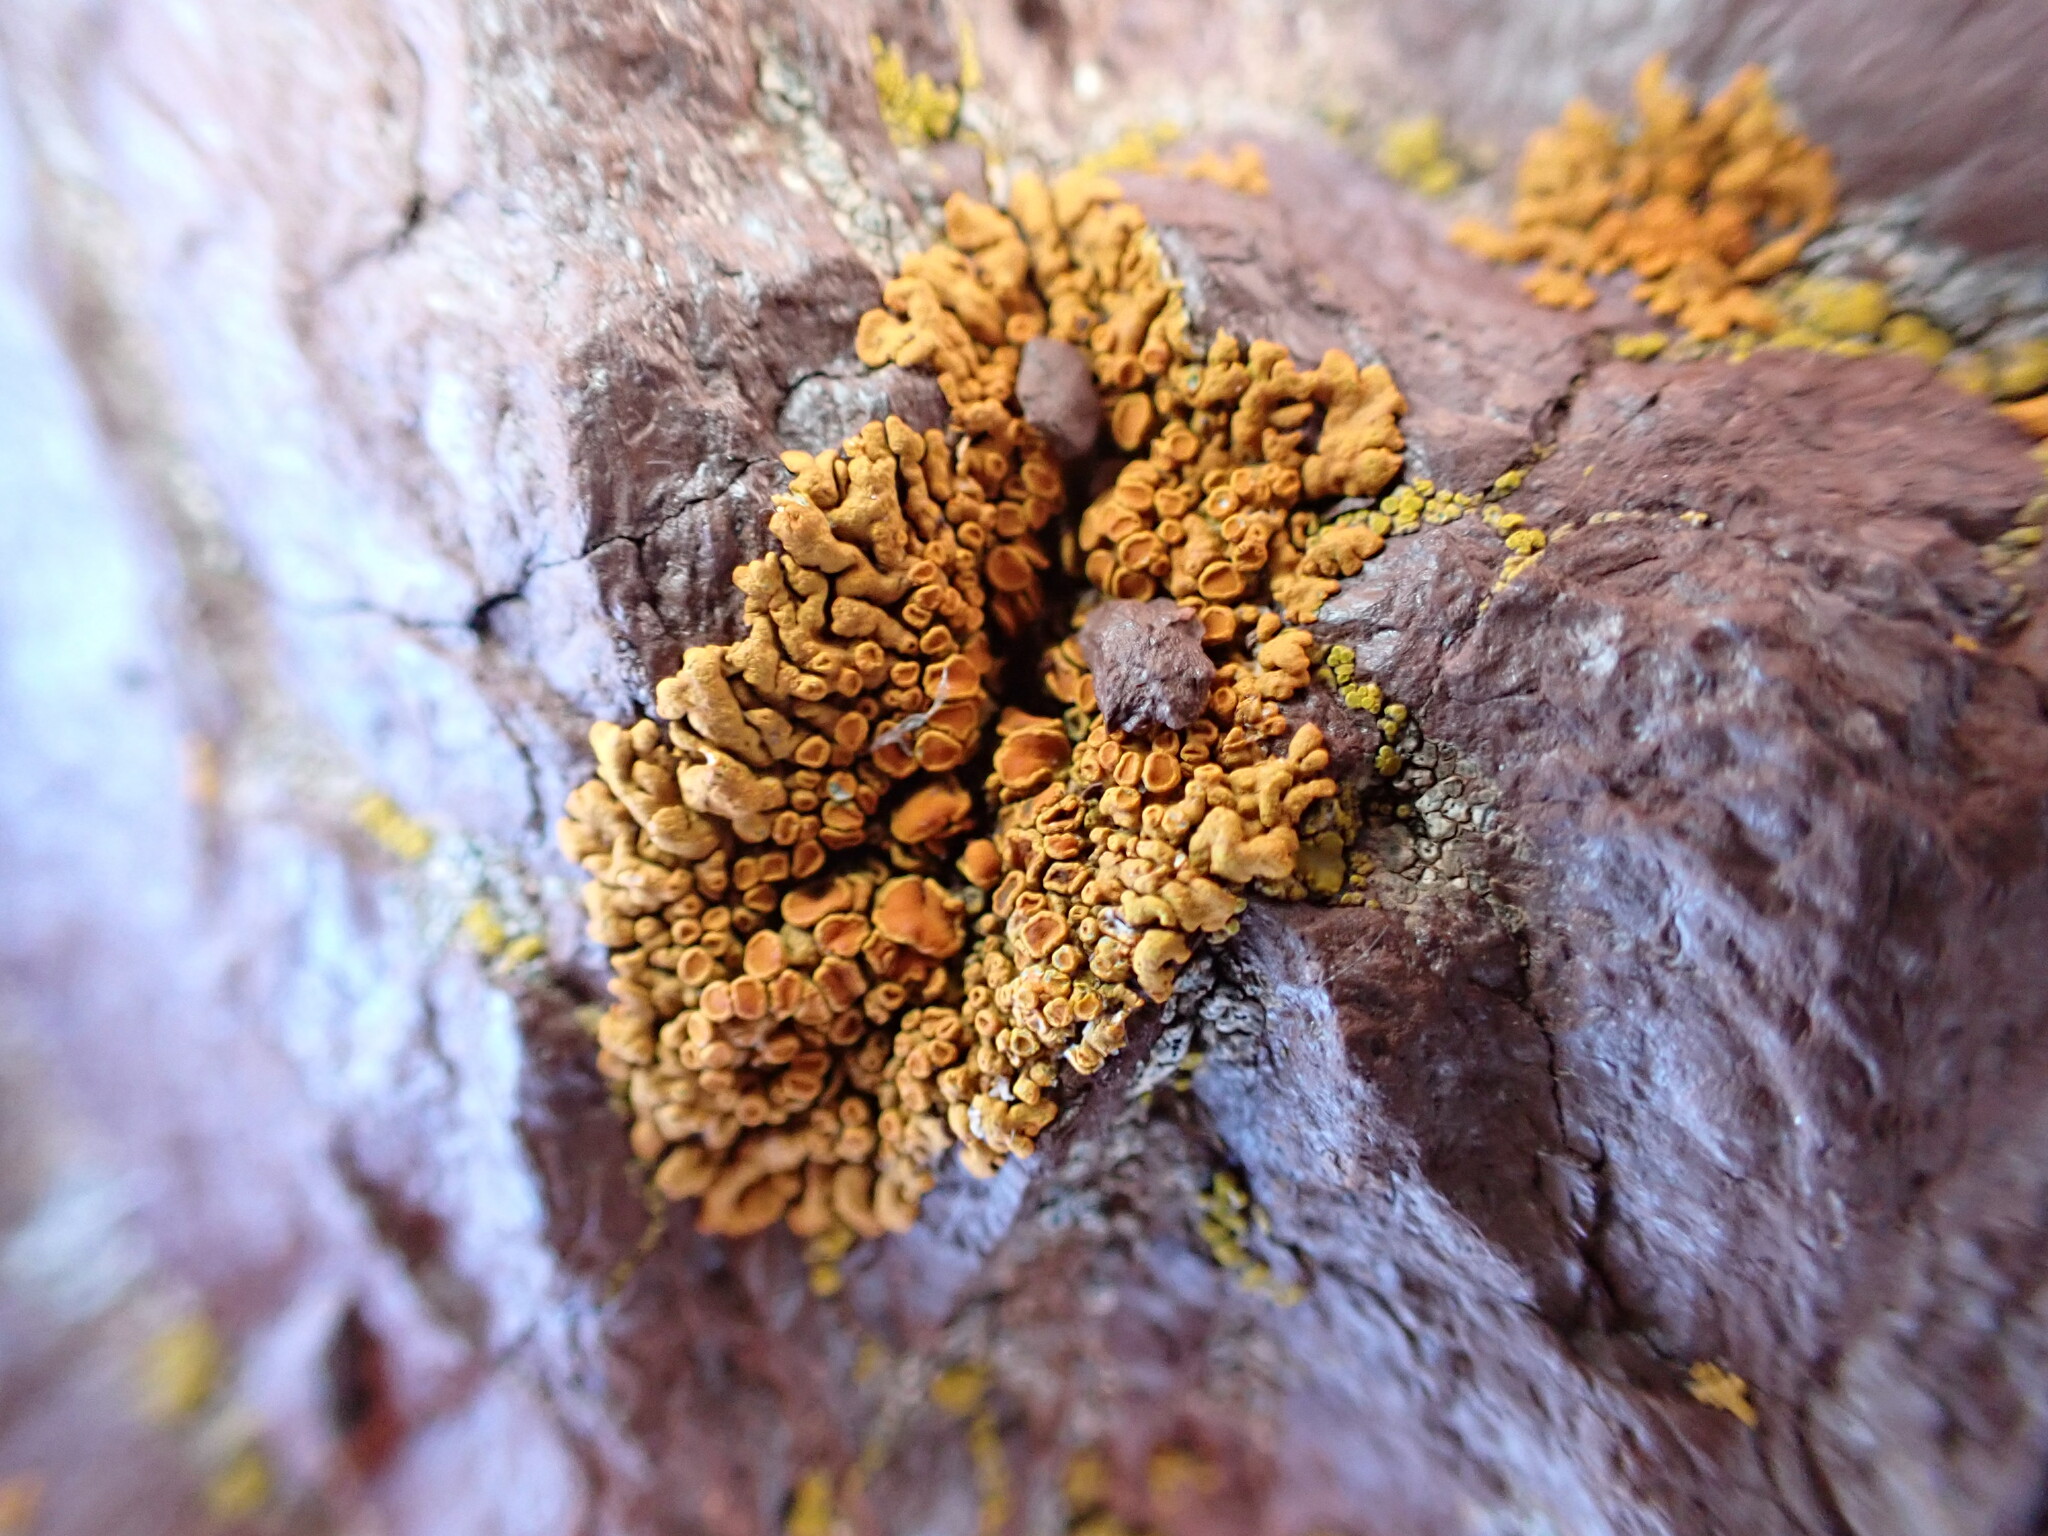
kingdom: Fungi
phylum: Ascomycota
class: Lecanoromycetes
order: Teloschistales
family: Teloschistaceae
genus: Xanthoria
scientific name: Xanthoria elegans
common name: Elegant sunburst lichen
